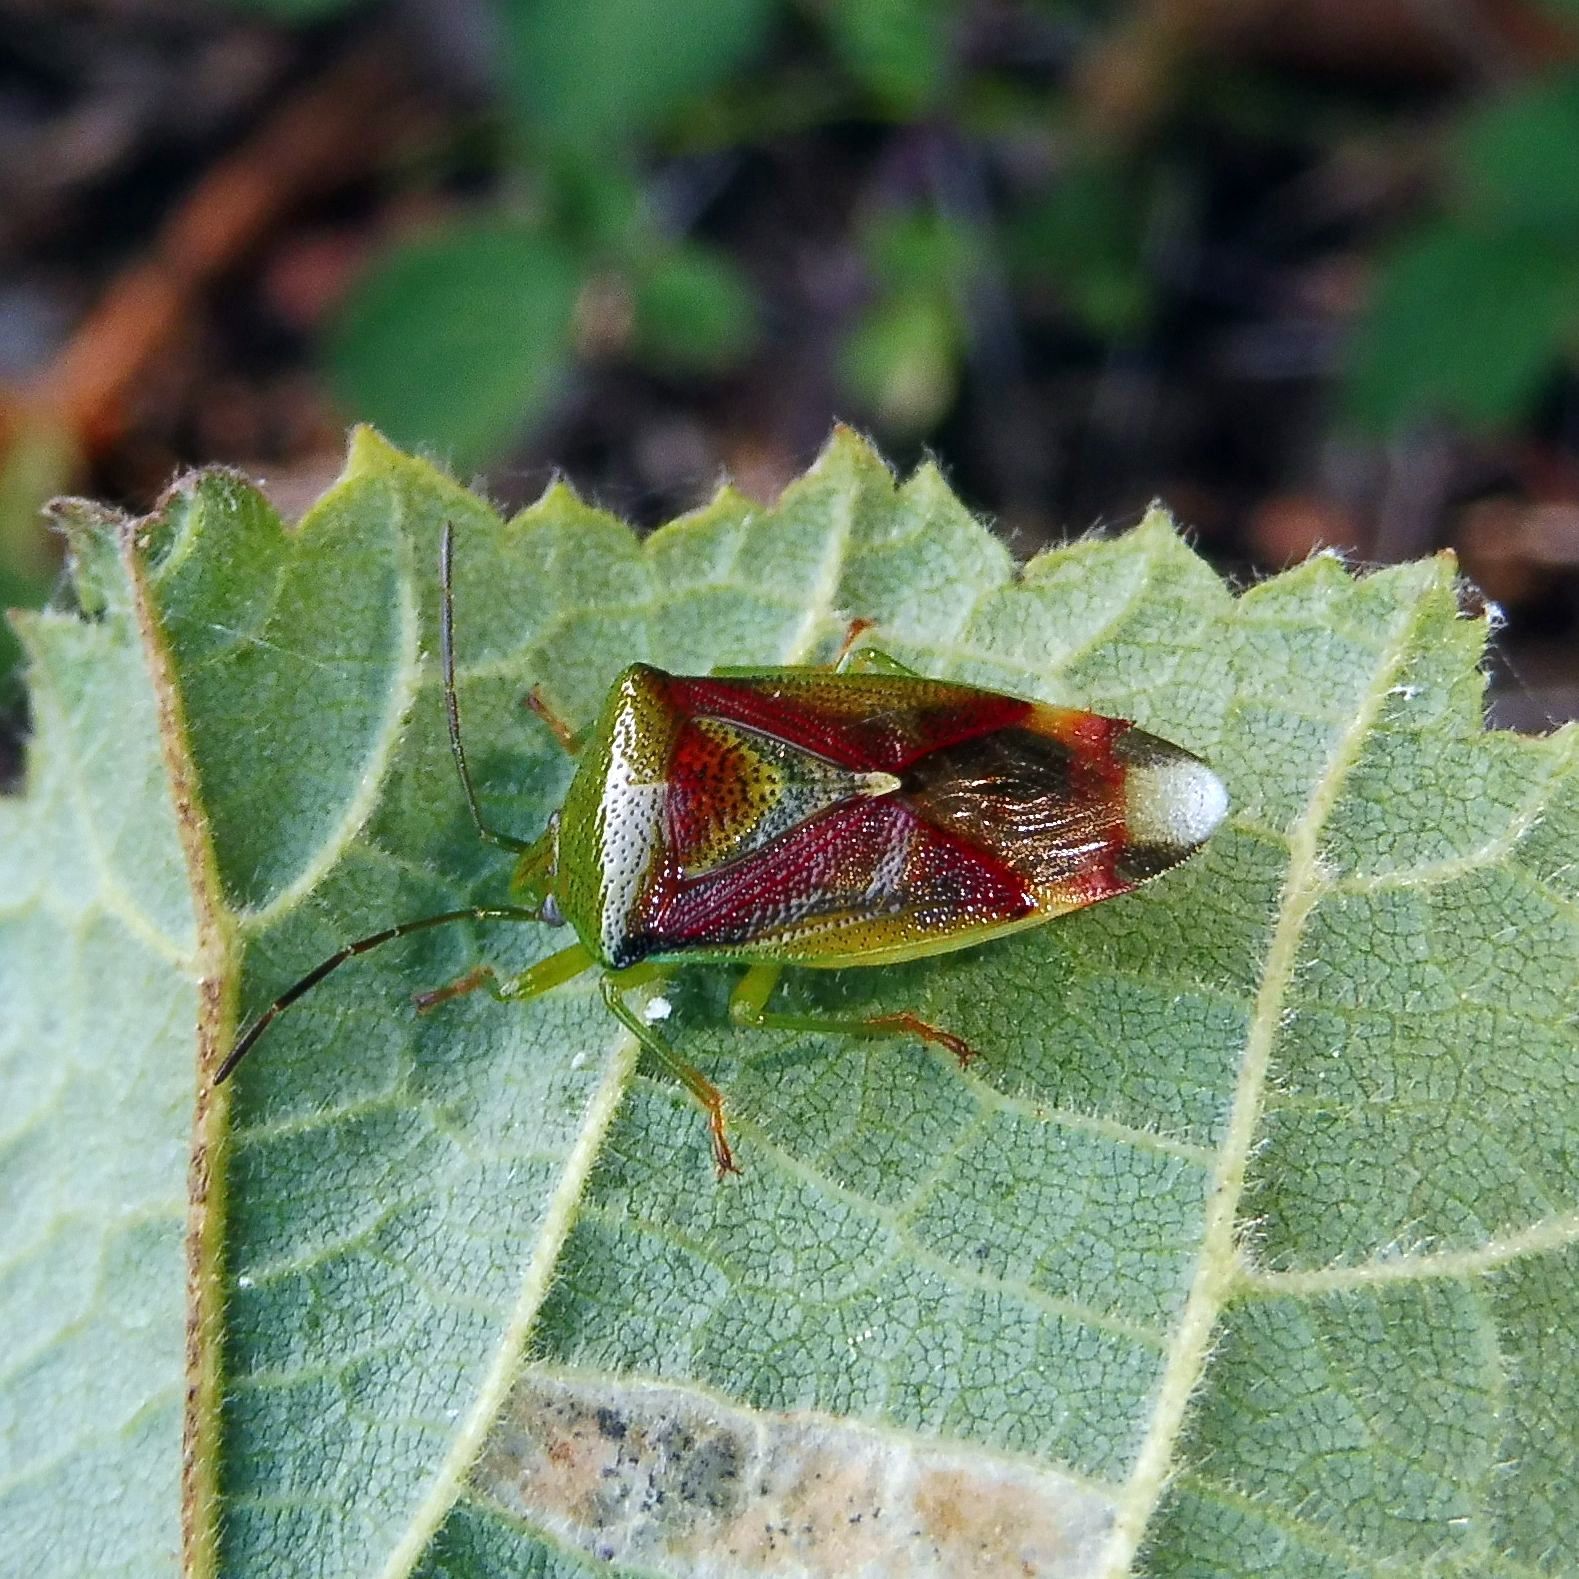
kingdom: Animalia
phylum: Arthropoda
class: Insecta
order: Hemiptera
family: Acanthosomatidae
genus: Elasmostethus
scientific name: Elasmostethus interstinctus
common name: Birch shieldbug
